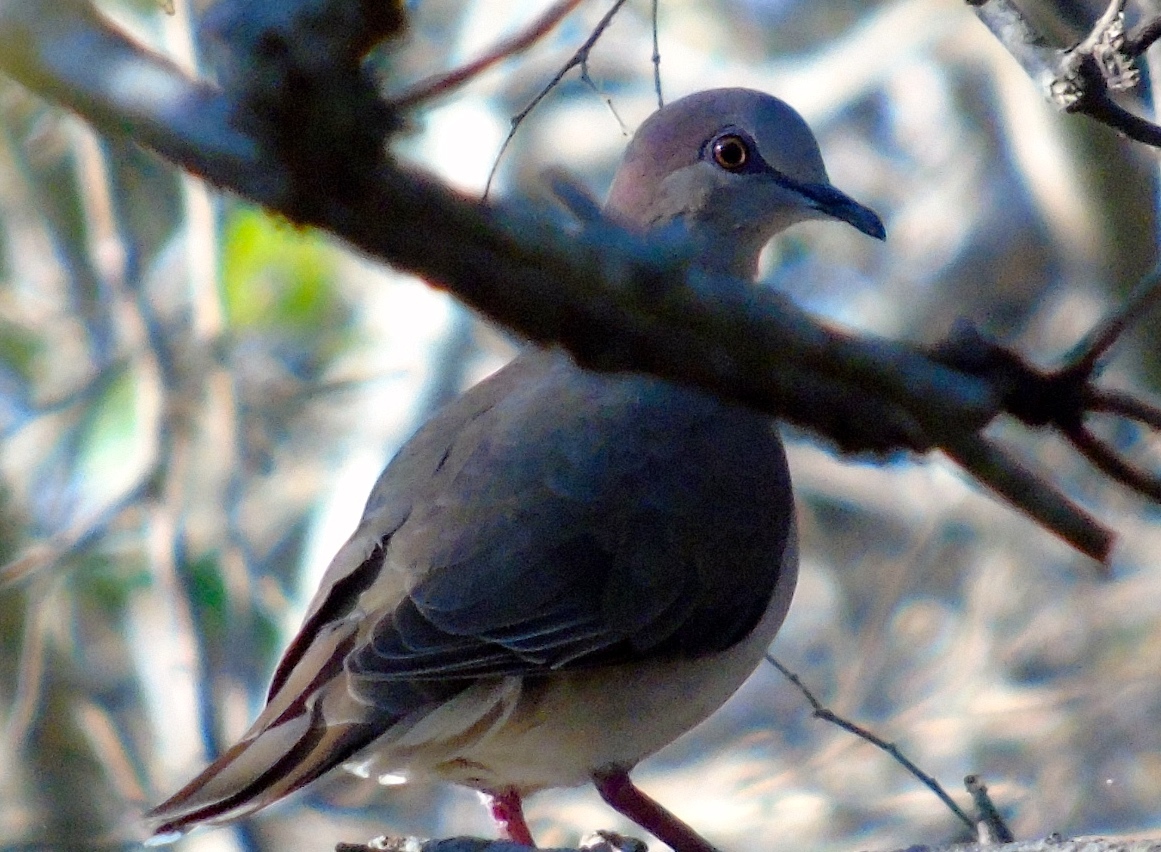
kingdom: Animalia
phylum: Chordata
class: Aves
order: Columbiformes
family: Columbidae
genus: Leptotila
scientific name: Leptotila verreauxi
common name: White-tipped dove
